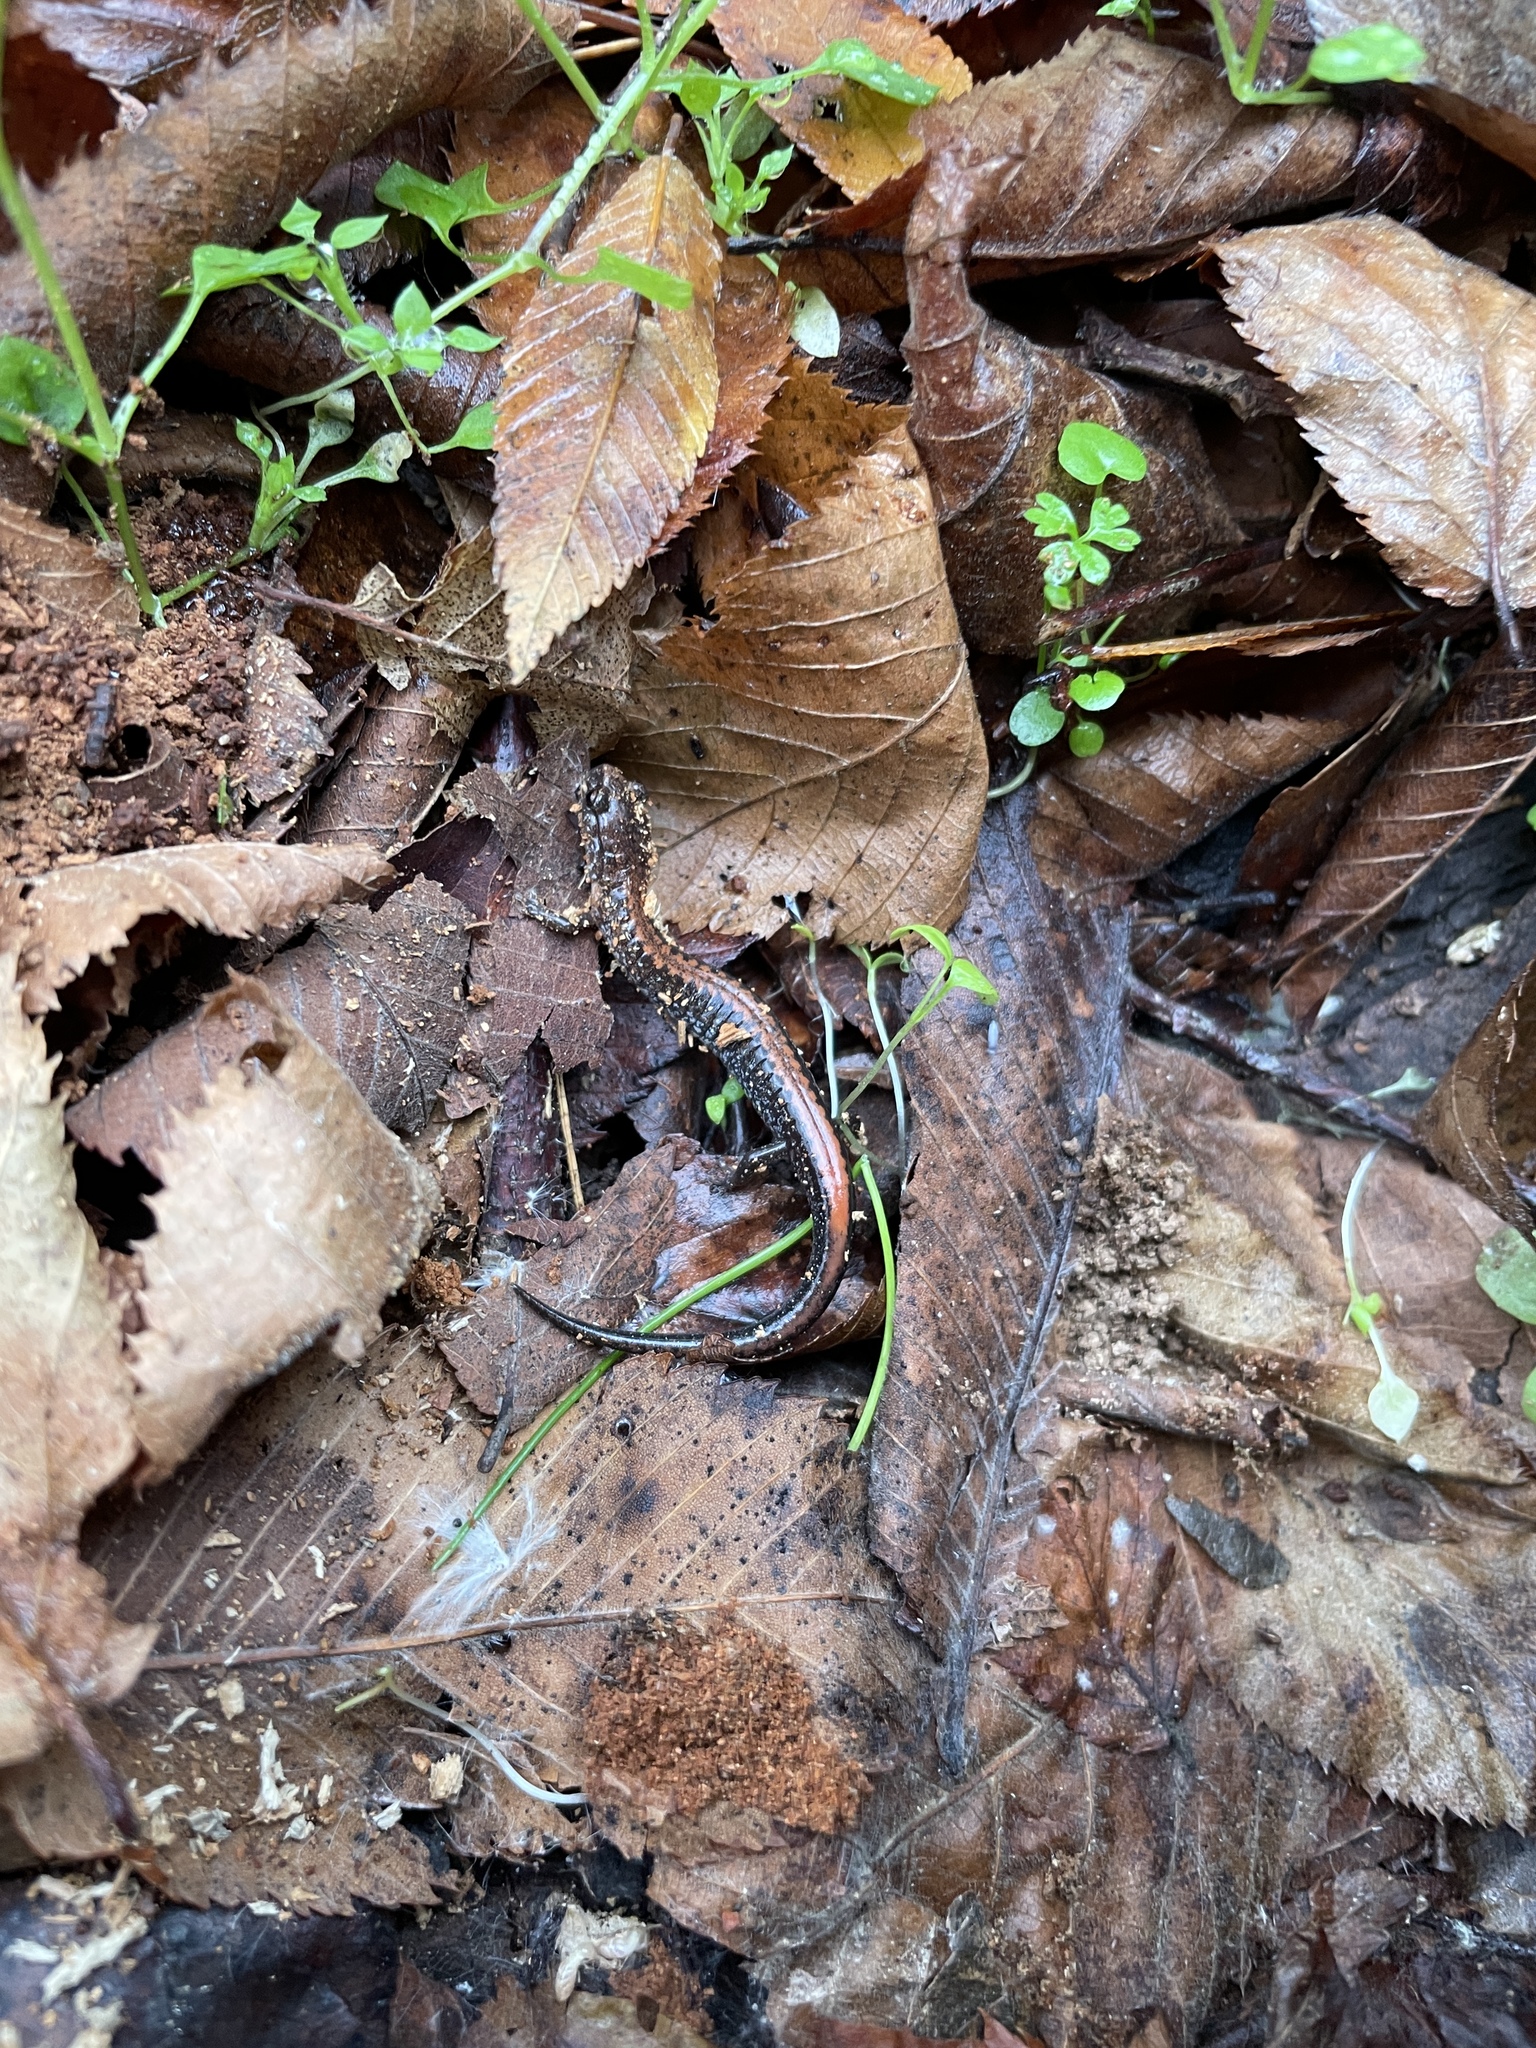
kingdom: Animalia
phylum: Chordata
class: Amphibia
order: Caudata
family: Plethodontidae
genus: Plethodon
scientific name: Plethodon serratus
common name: Southern red-backed salamander
